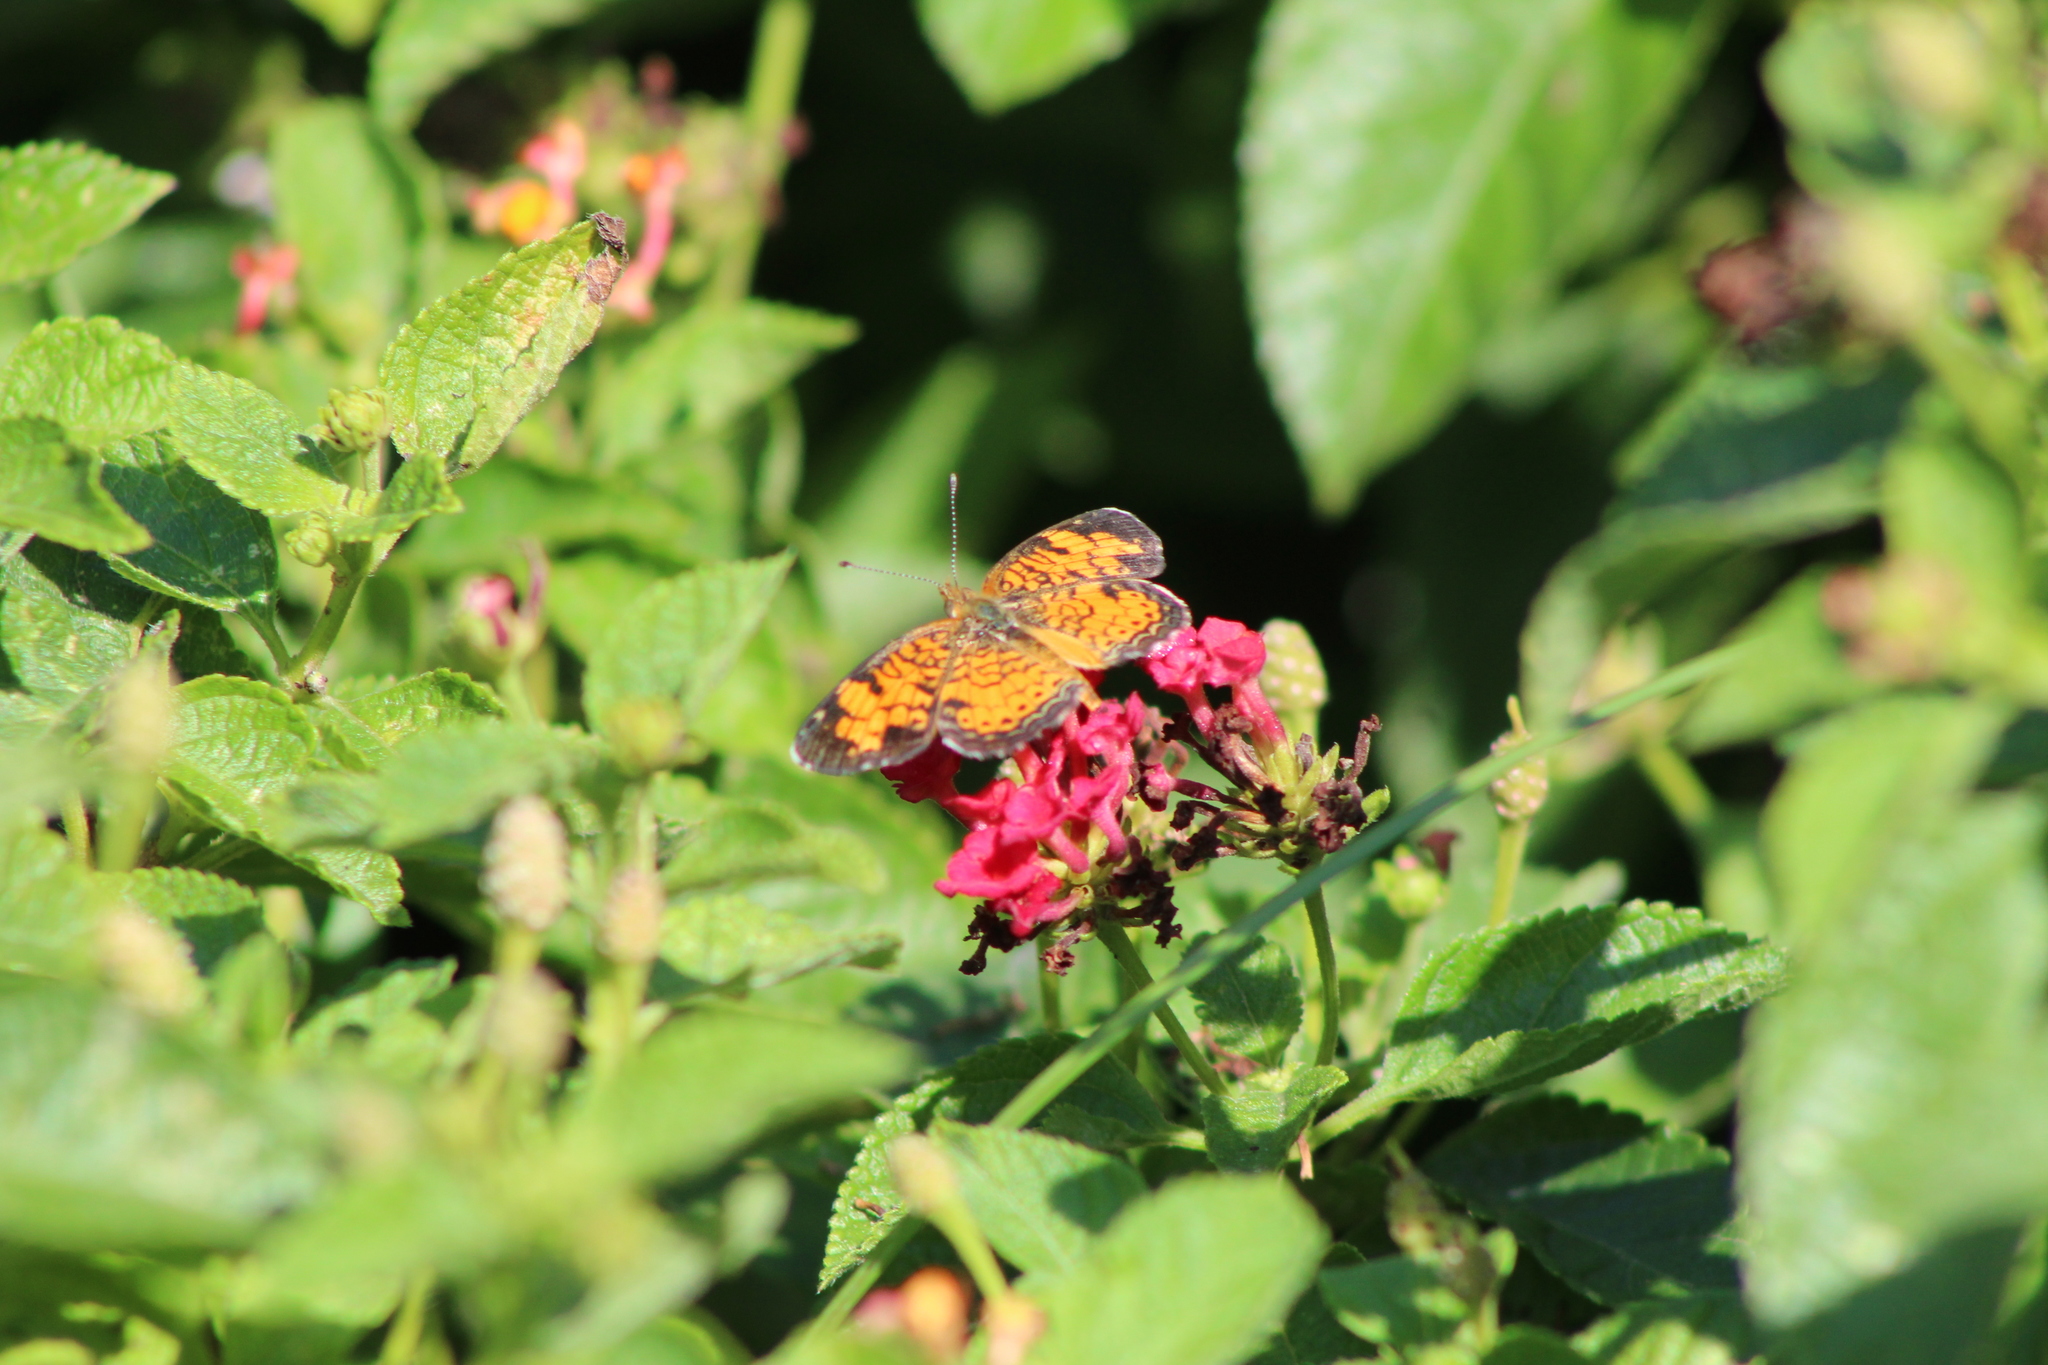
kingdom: Animalia
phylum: Arthropoda
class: Insecta
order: Lepidoptera
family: Nymphalidae
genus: Phyciodes
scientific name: Phyciodes tharos
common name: Pearl crescent
